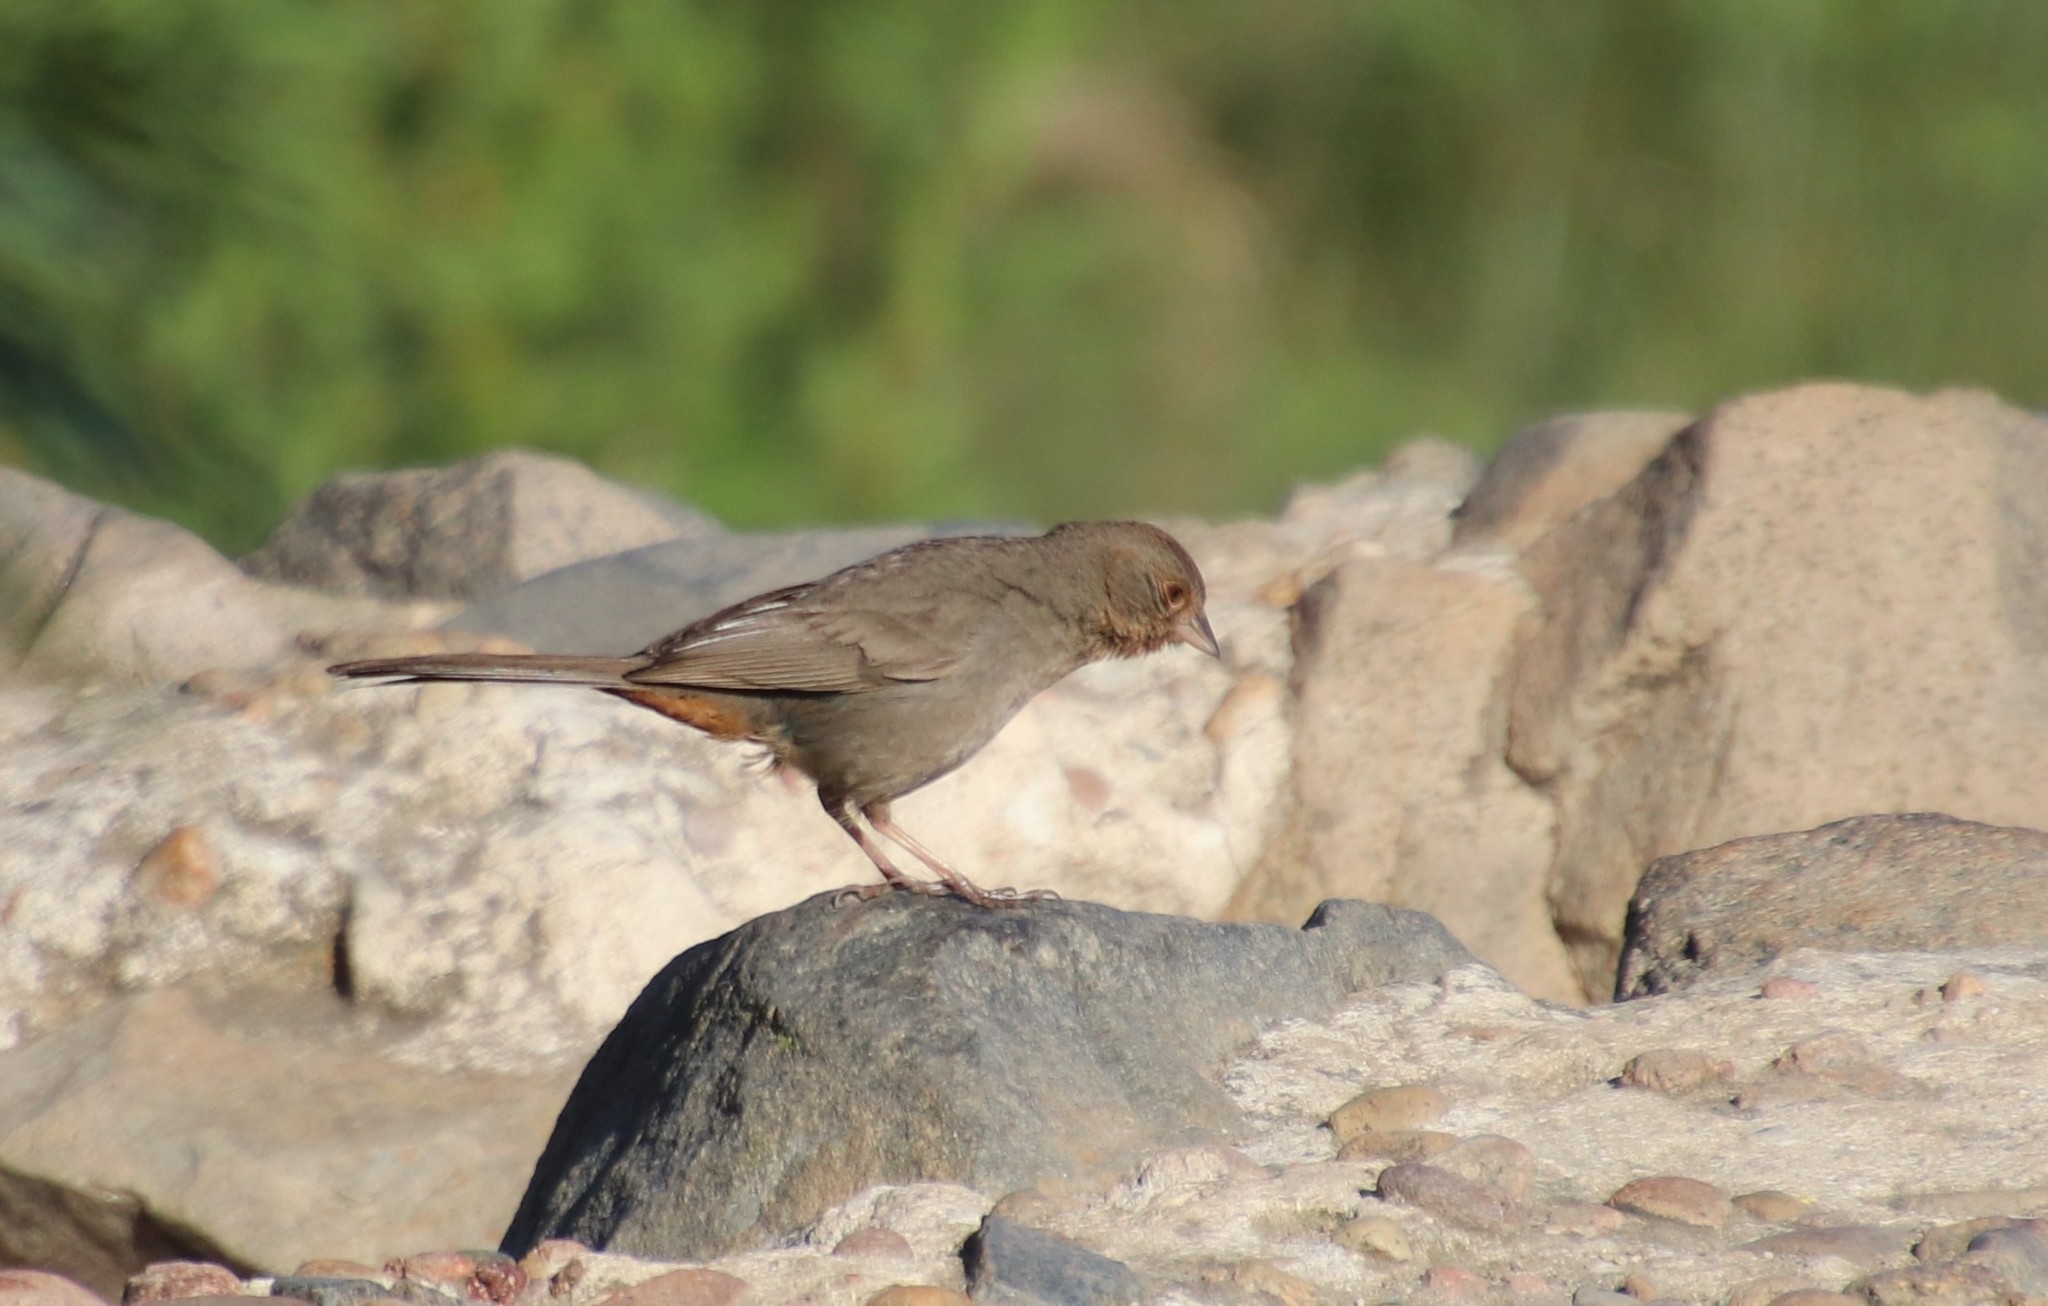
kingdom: Animalia
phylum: Chordata
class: Aves
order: Passeriformes
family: Passerellidae
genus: Melozone
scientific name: Melozone crissalis
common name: California towhee
